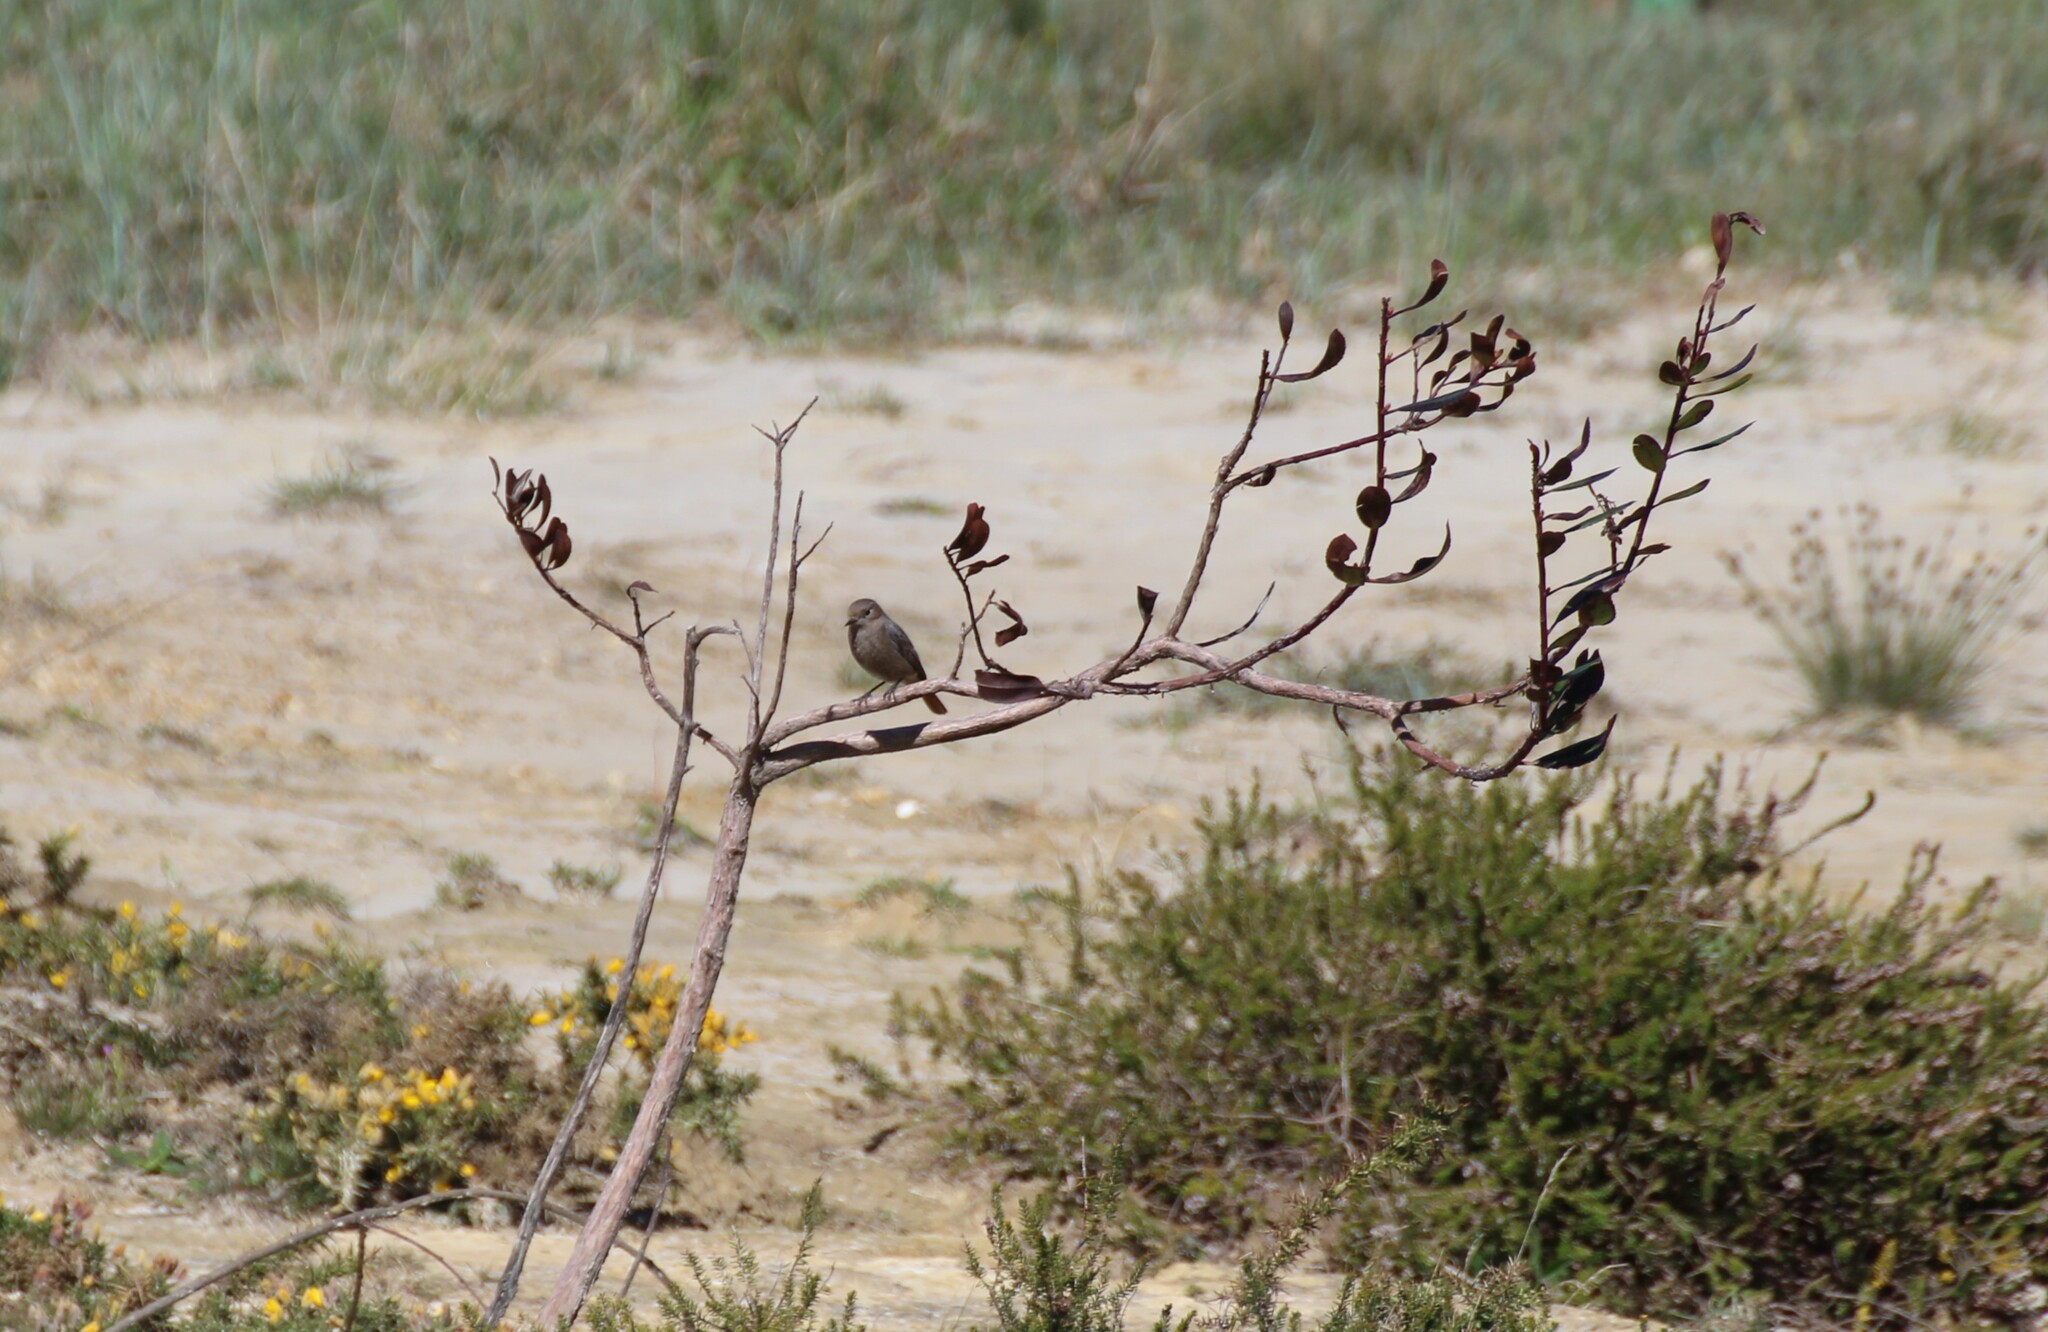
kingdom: Animalia
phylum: Chordata
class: Aves
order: Passeriformes
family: Muscicapidae
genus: Phoenicurus
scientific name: Phoenicurus ochruros
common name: Black redstart
